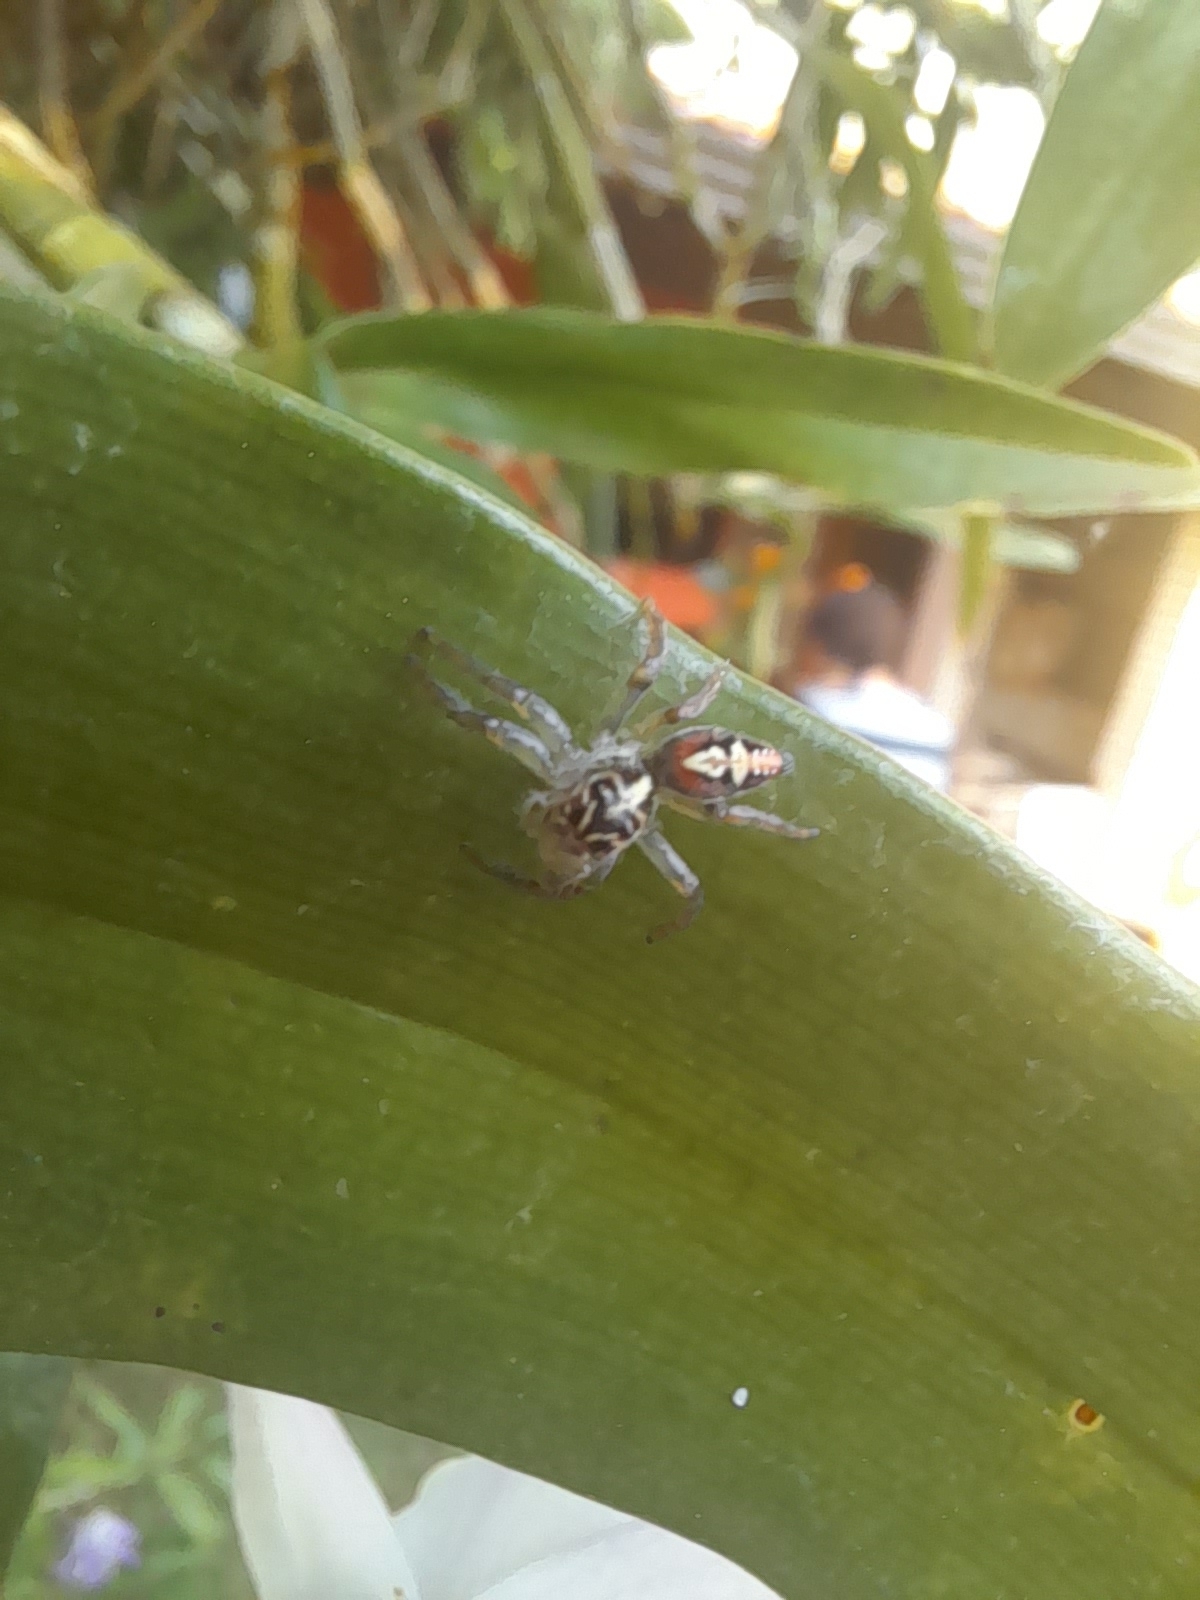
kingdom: Animalia
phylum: Arthropoda
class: Arachnida
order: Araneae
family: Salticidae
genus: Frigga
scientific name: Frigga quintensis
